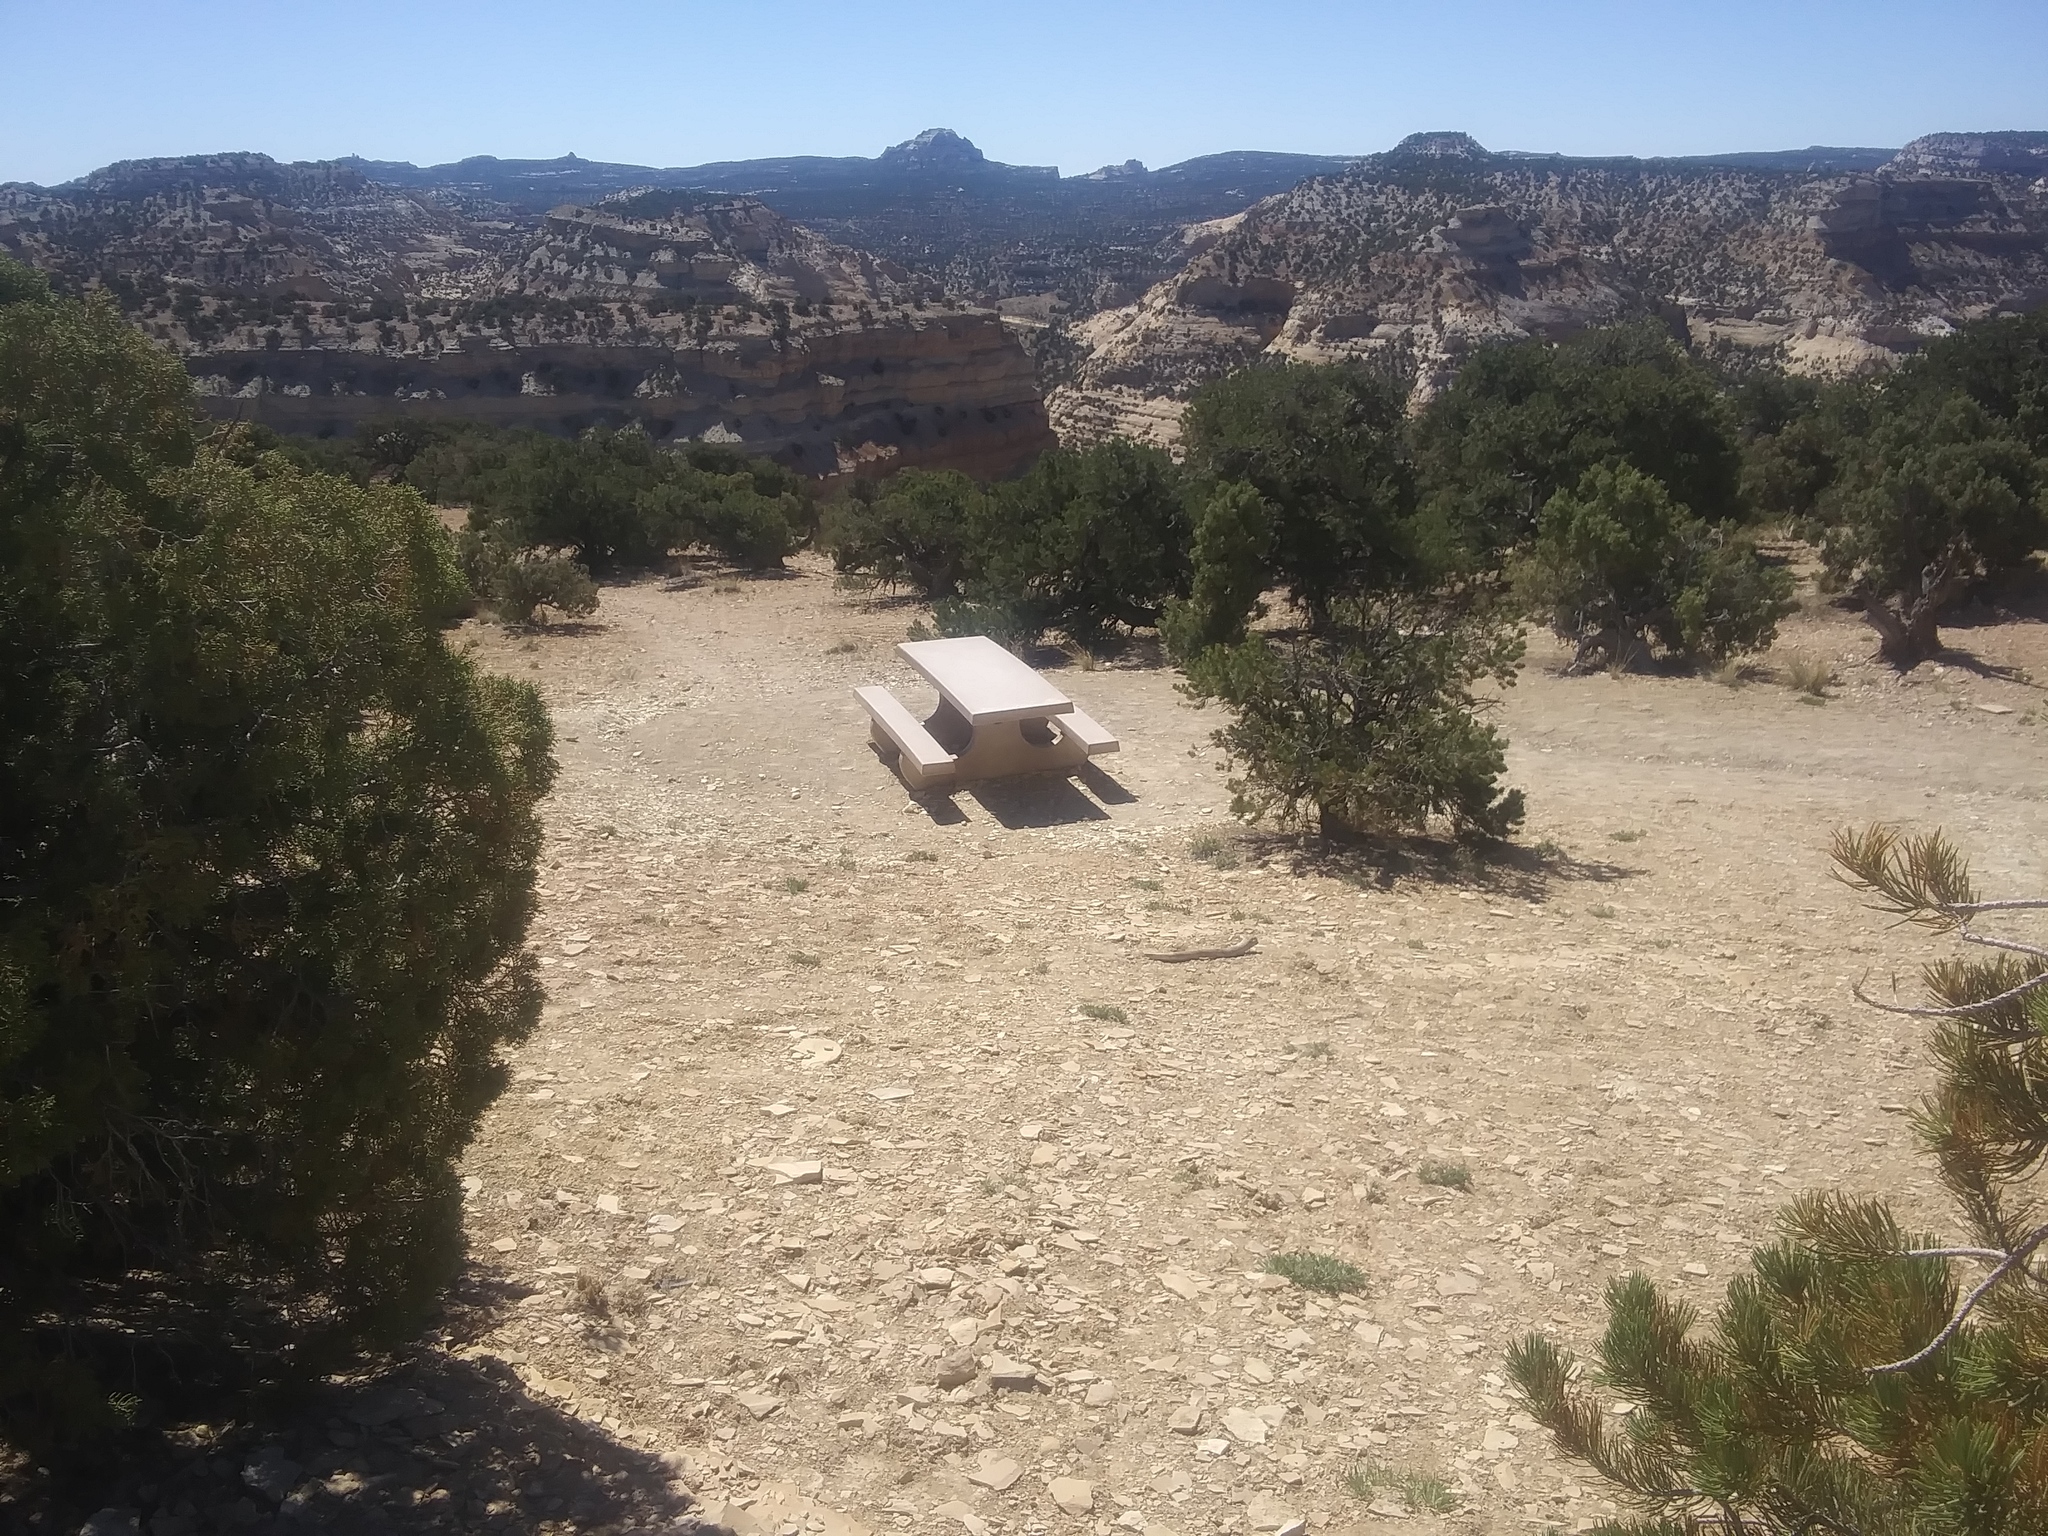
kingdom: Plantae
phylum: Tracheophyta
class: Pinopsida
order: Pinales
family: Cupressaceae
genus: Juniperus
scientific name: Juniperus osteosperma
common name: Utah juniper
